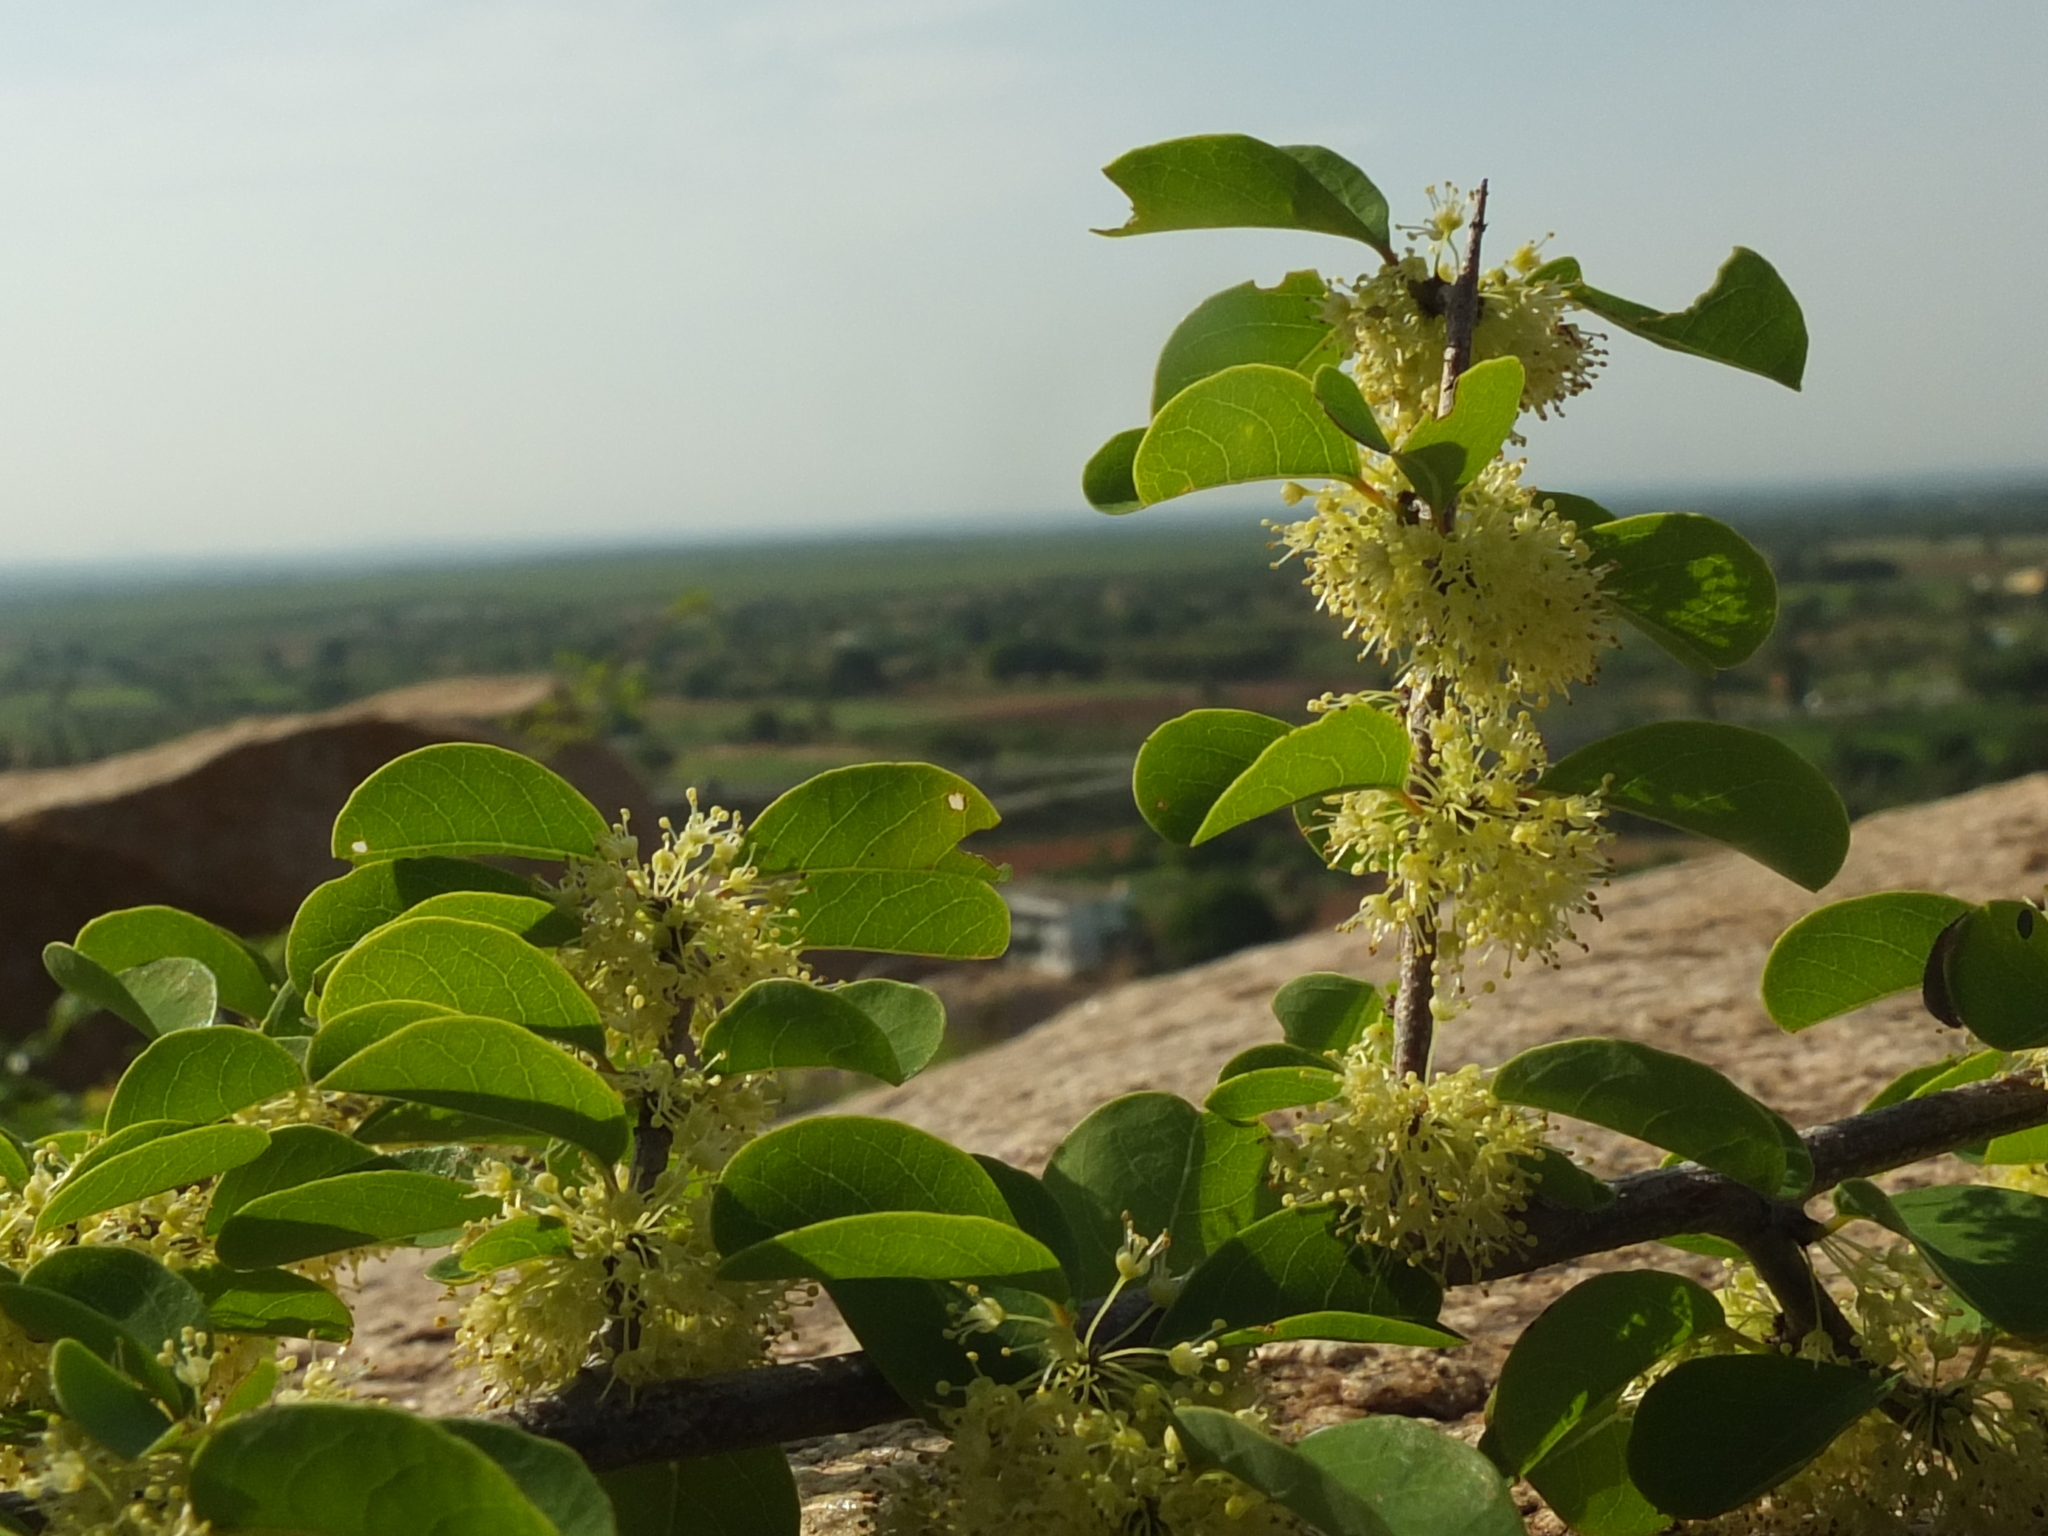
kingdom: Plantae
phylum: Tracheophyta
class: Magnoliopsida
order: Malpighiales
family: Phyllanthaceae
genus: Flueggea
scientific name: Flueggea leucopyrus
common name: Bushweed
